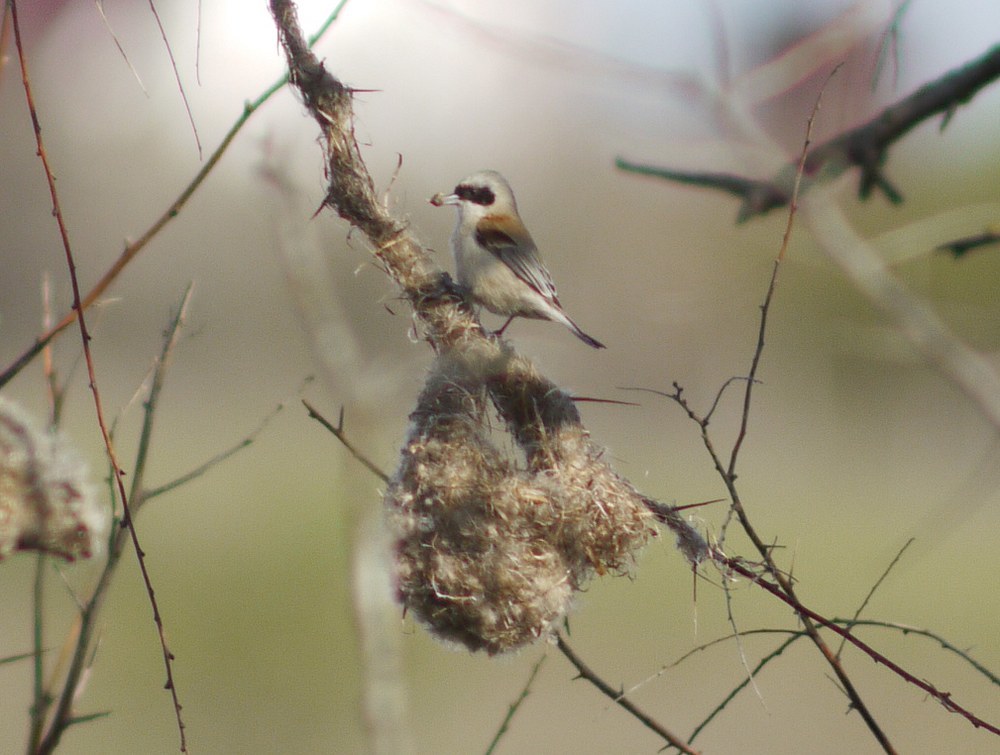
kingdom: Animalia
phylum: Chordata
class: Aves
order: Passeriformes
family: Remizidae
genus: Remiz
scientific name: Remiz pendulinus
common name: Eurasian penduline tit
